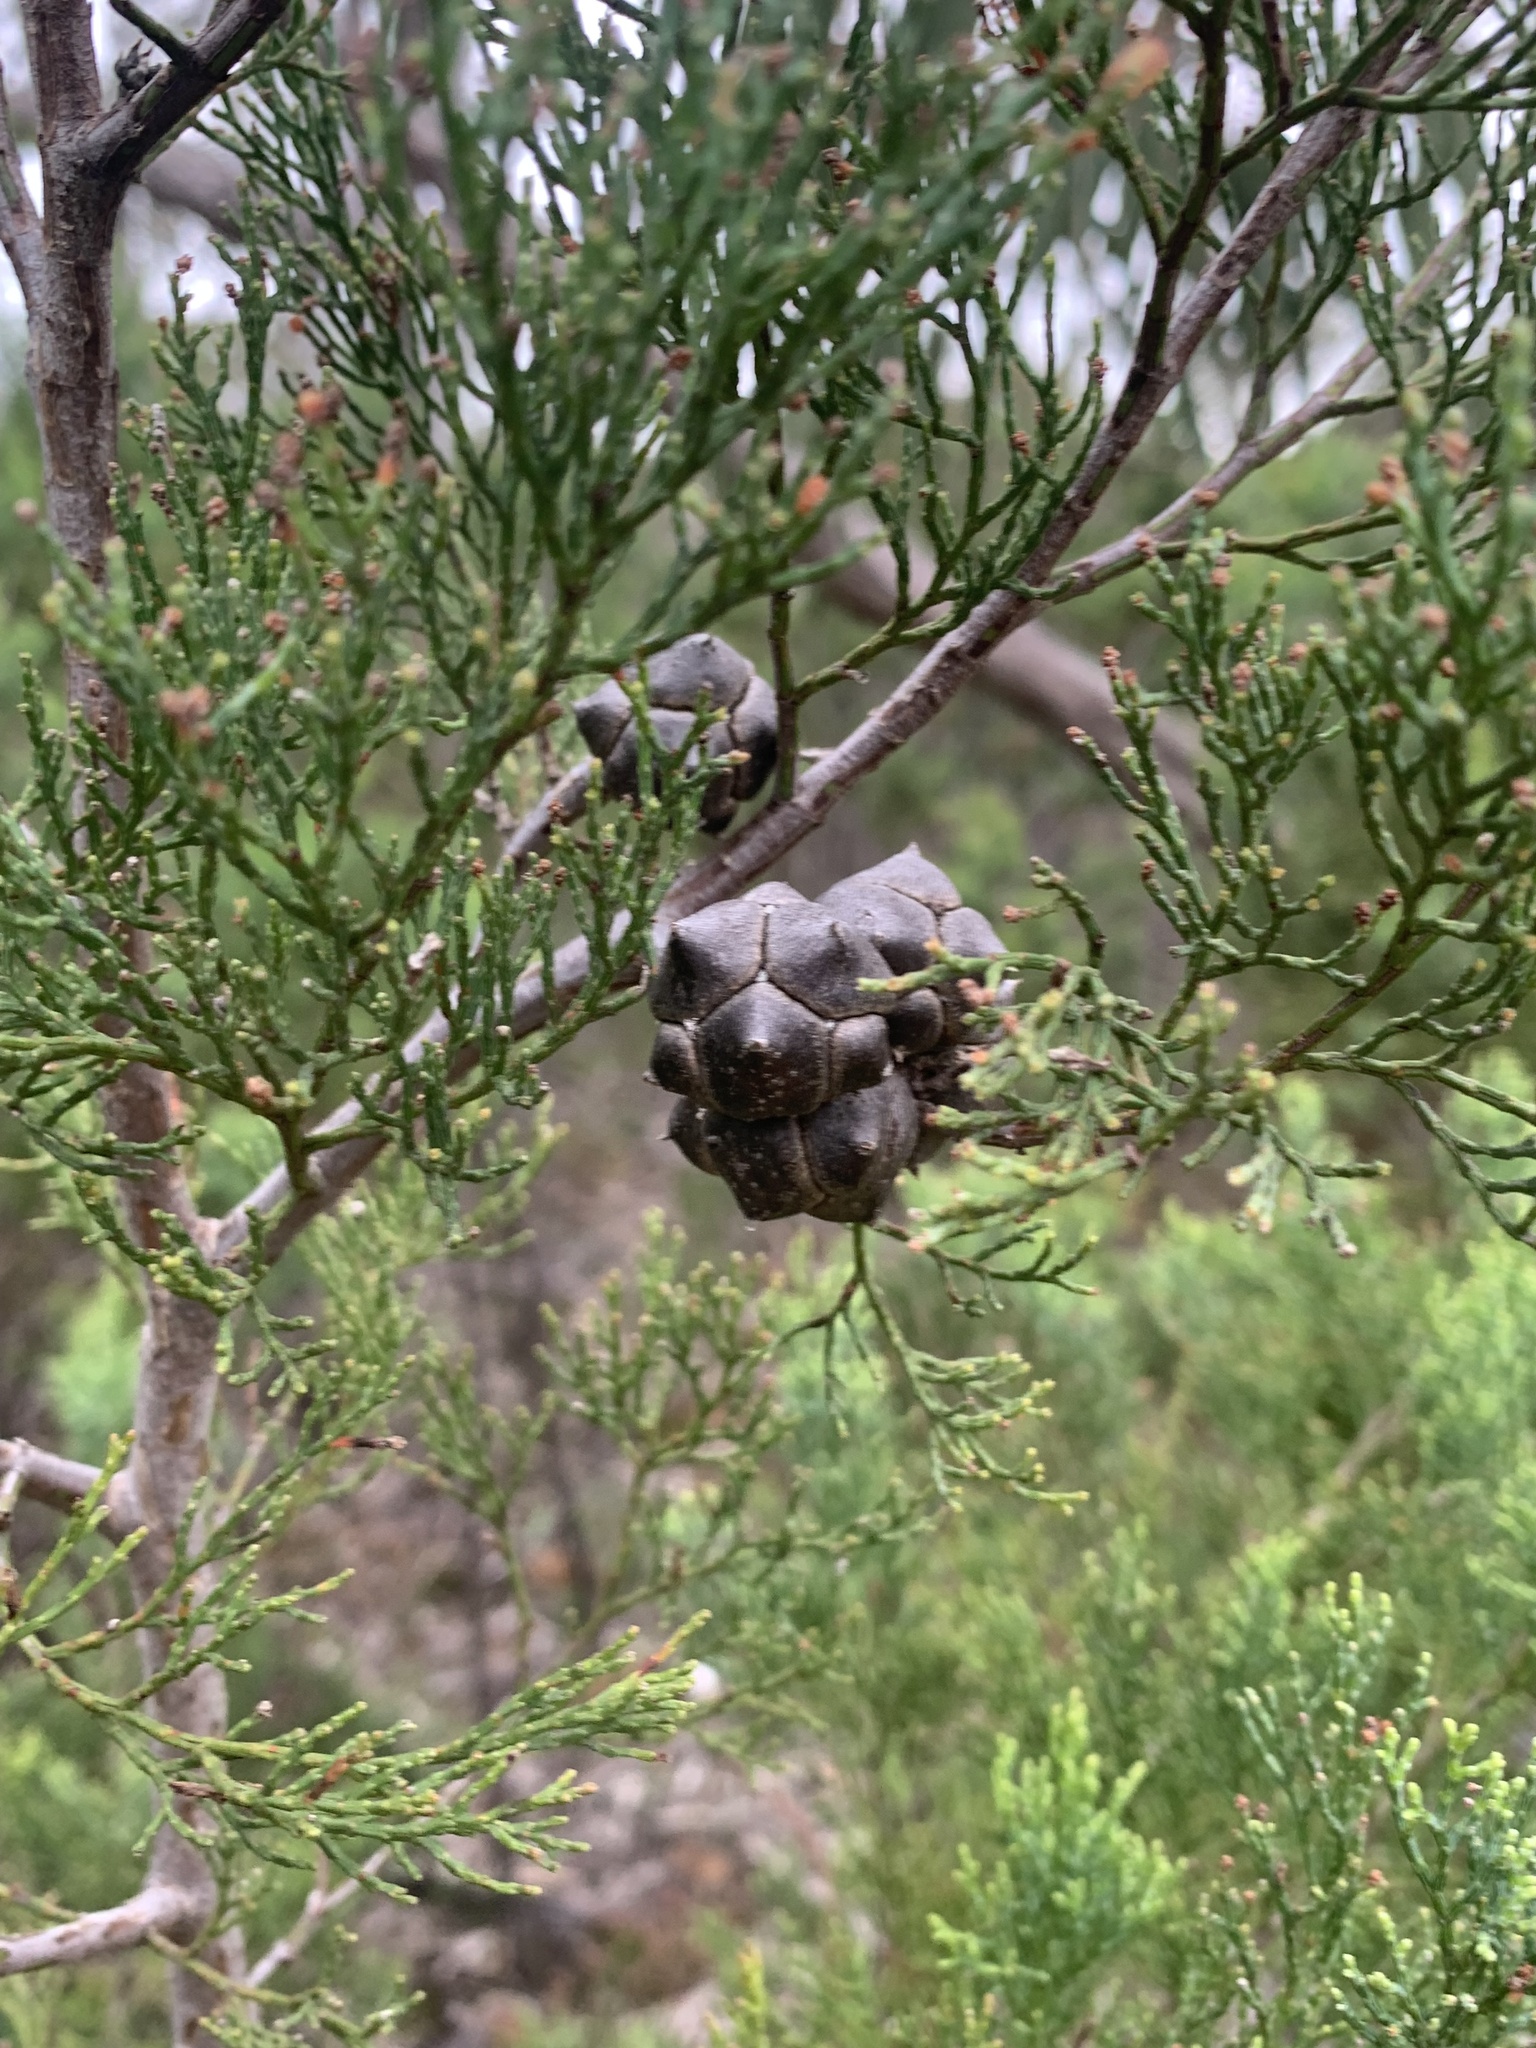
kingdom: Plantae
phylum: Tracheophyta
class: Pinopsida
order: Pinales
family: Cupressaceae
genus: Callitris
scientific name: Callitris rhomboidea
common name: Illawara mountain pine
